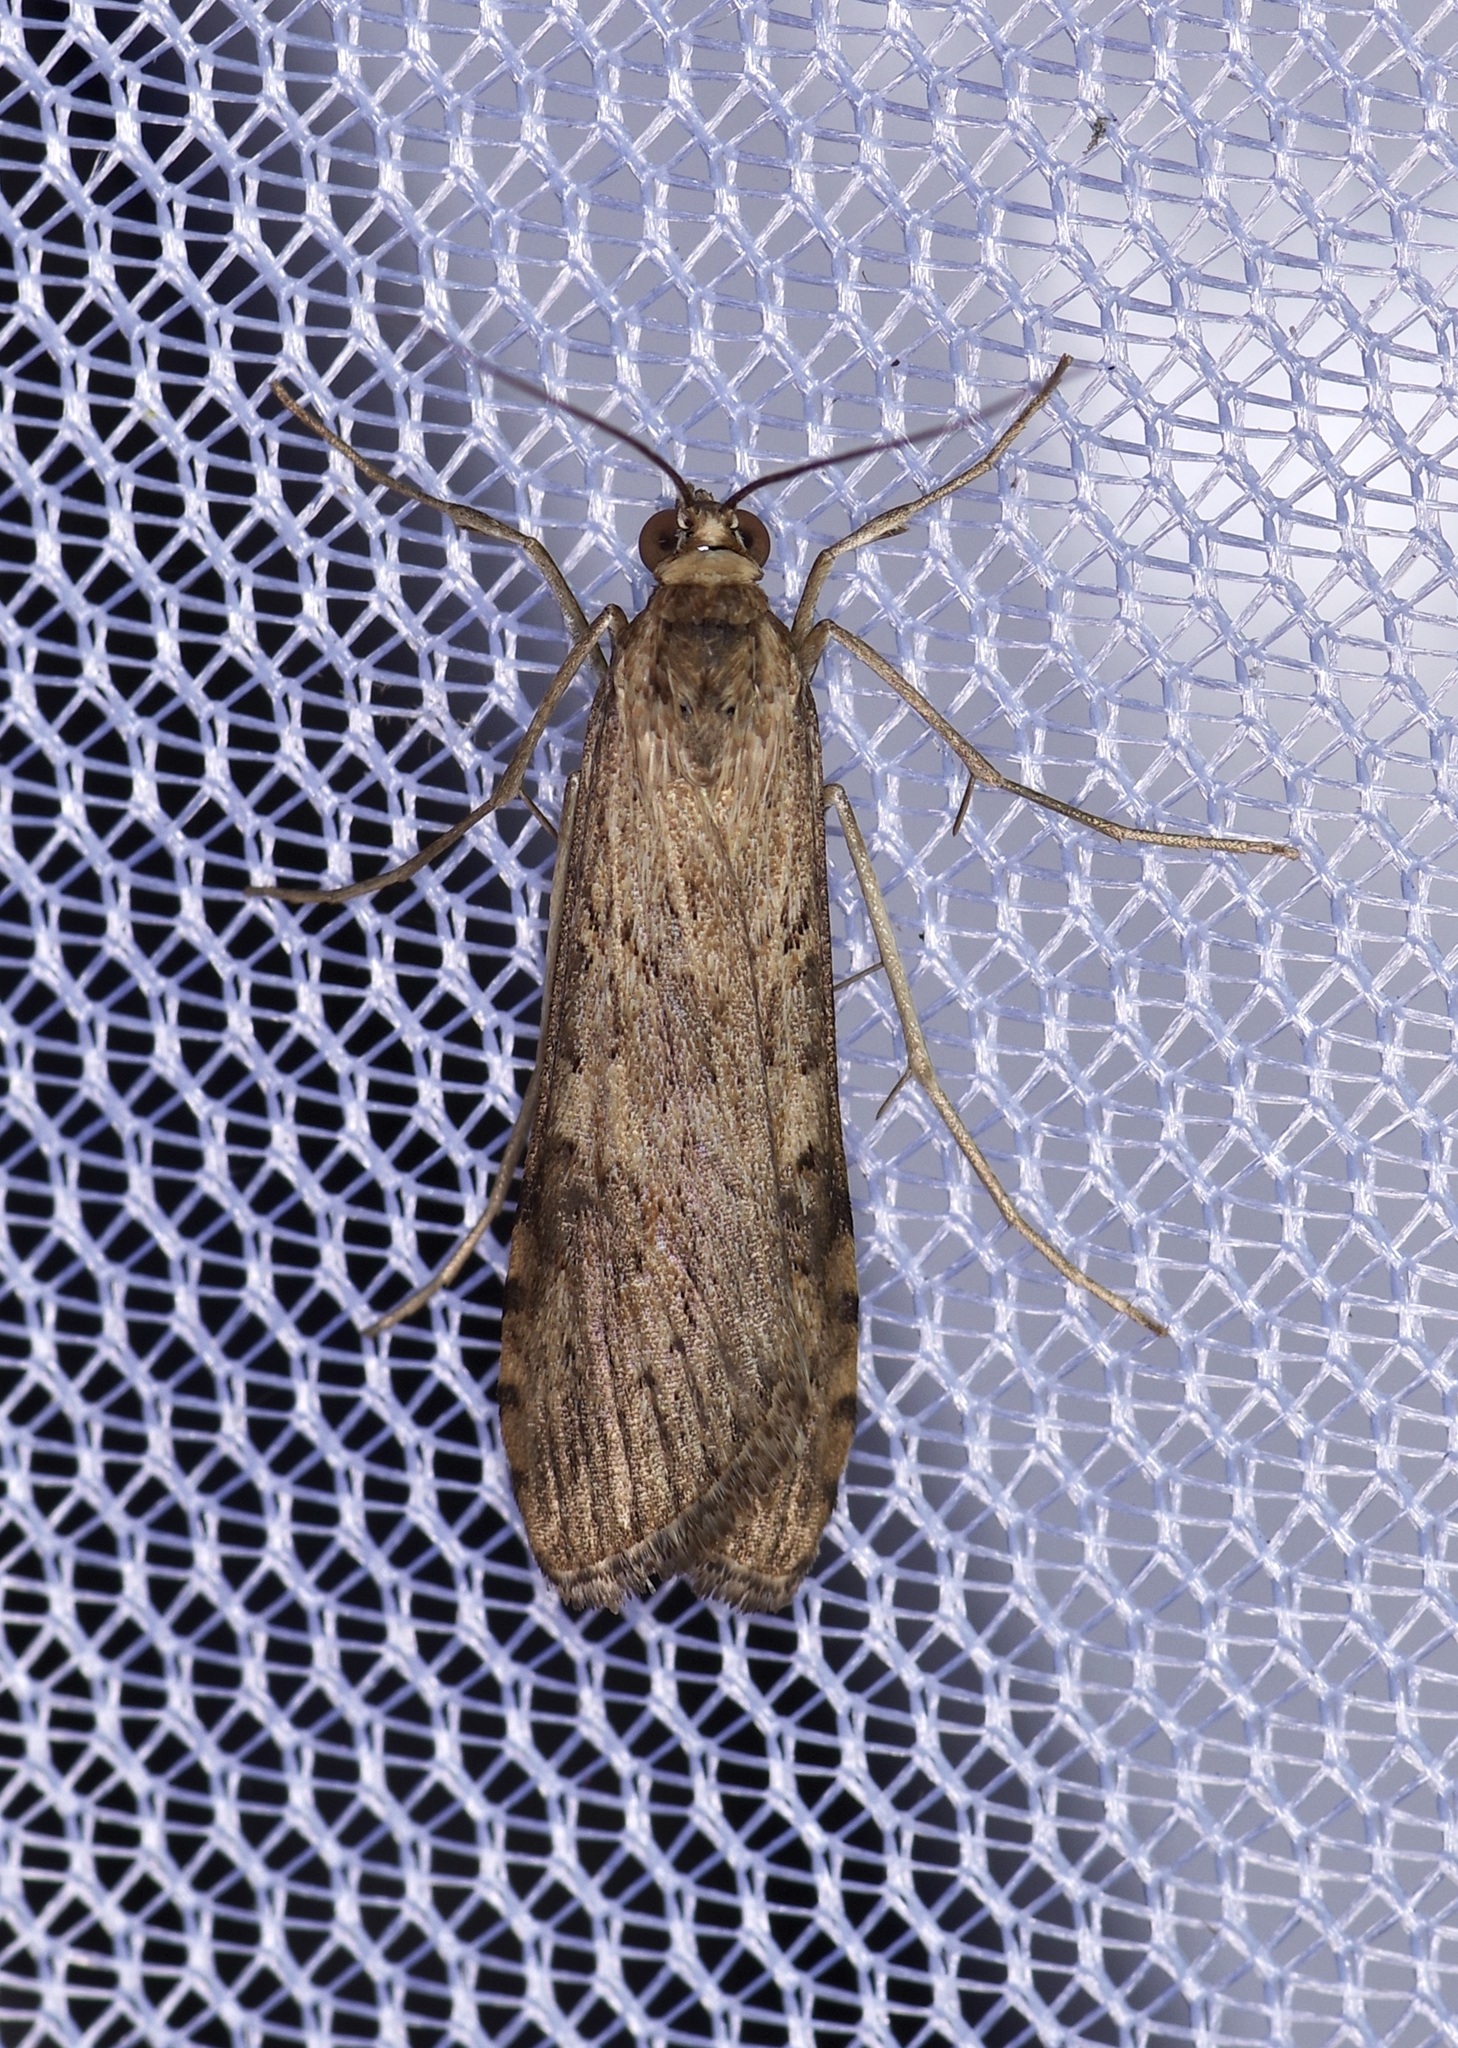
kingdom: Animalia
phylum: Arthropoda
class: Insecta
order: Lepidoptera
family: Crambidae
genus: Nomophila
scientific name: Nomophila nearctica
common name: American rush veneer
